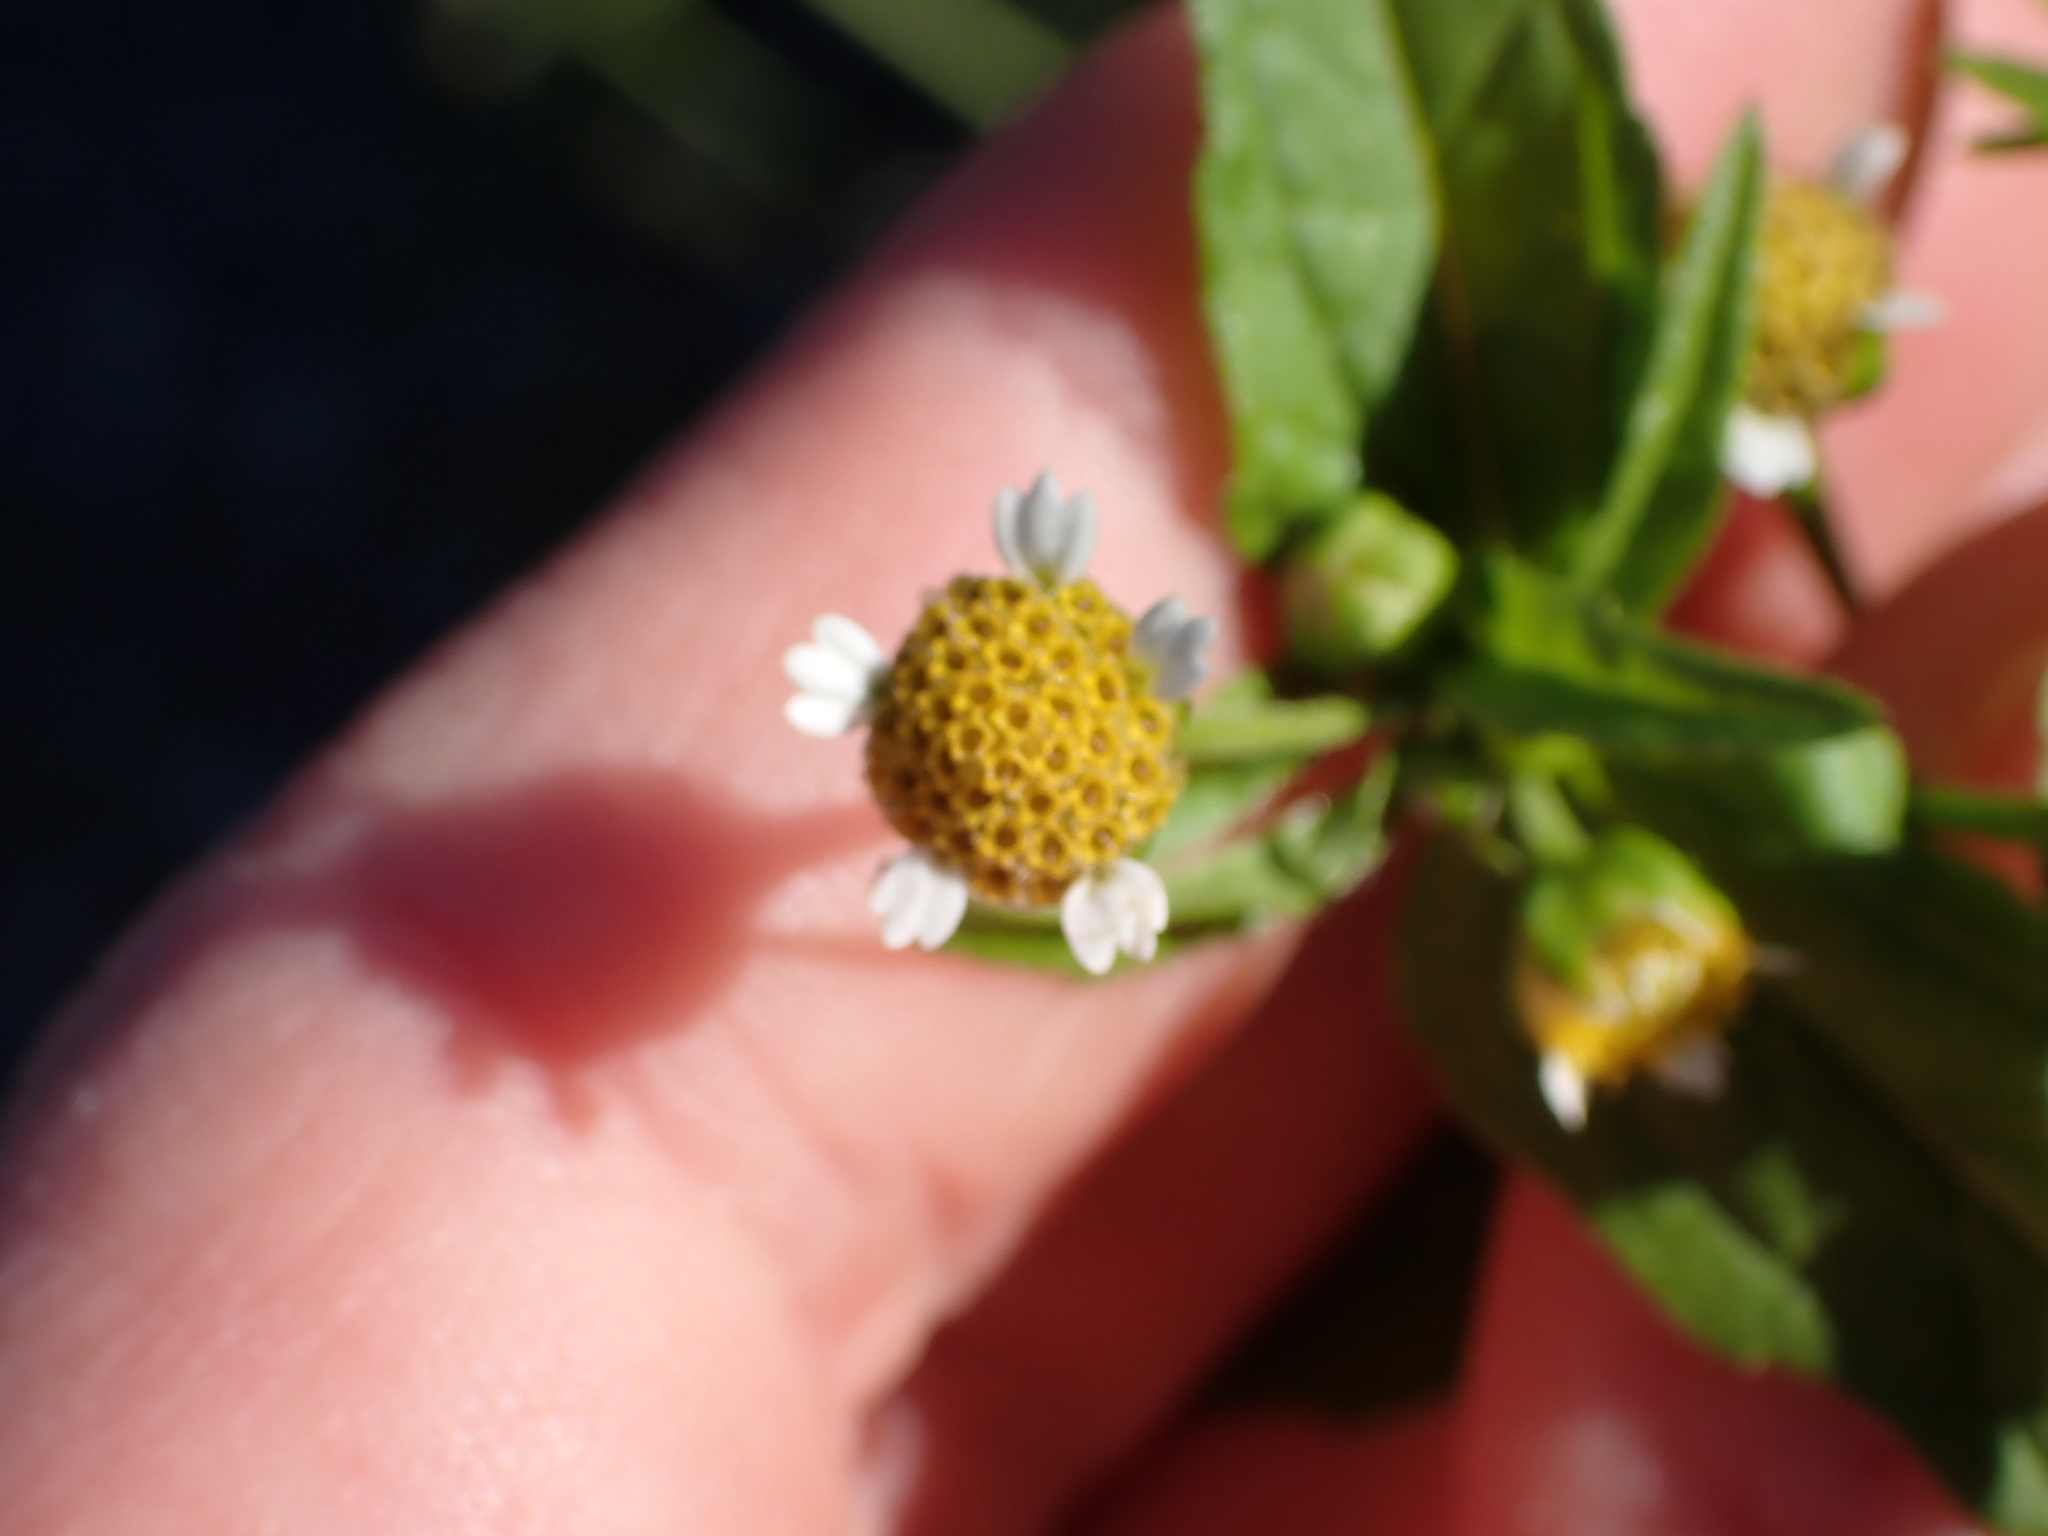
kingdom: Plantae
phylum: Tracheophyta
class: Magnoliopsida
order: Asterales
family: Asteraceae
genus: Galinsoga
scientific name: Galinsoga parviflora
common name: Gallant soldier
